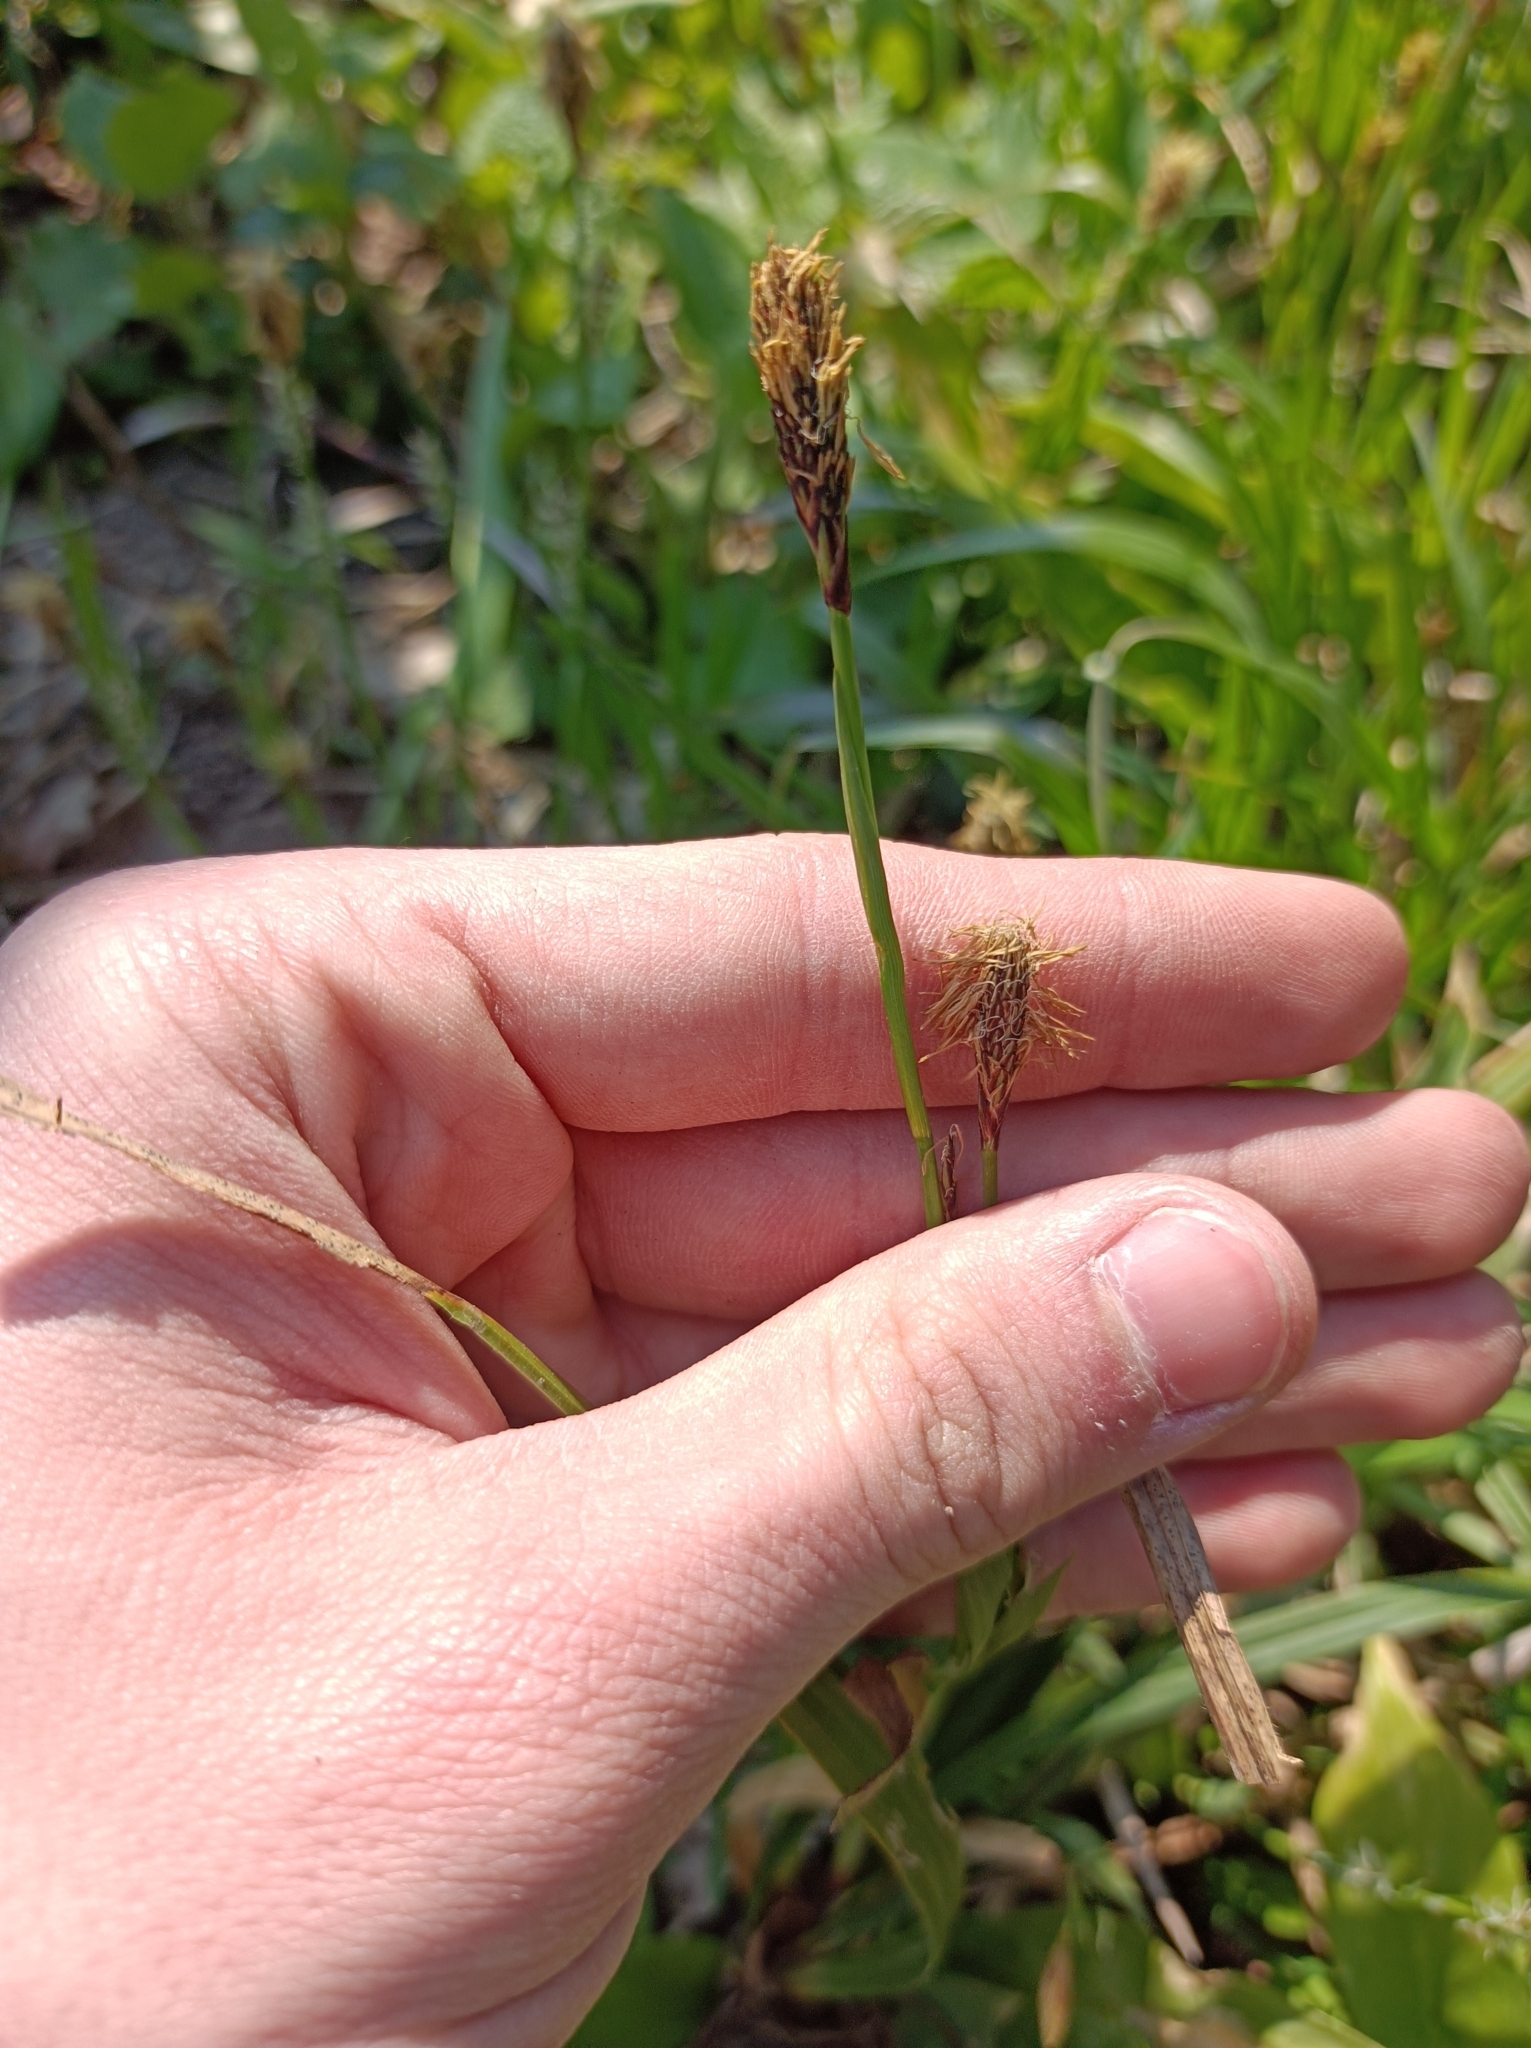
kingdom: Plantae
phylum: Tracheophyta
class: Liliopsida
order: Poales
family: Cyperaceae
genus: Carex
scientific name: Carex pilosa
